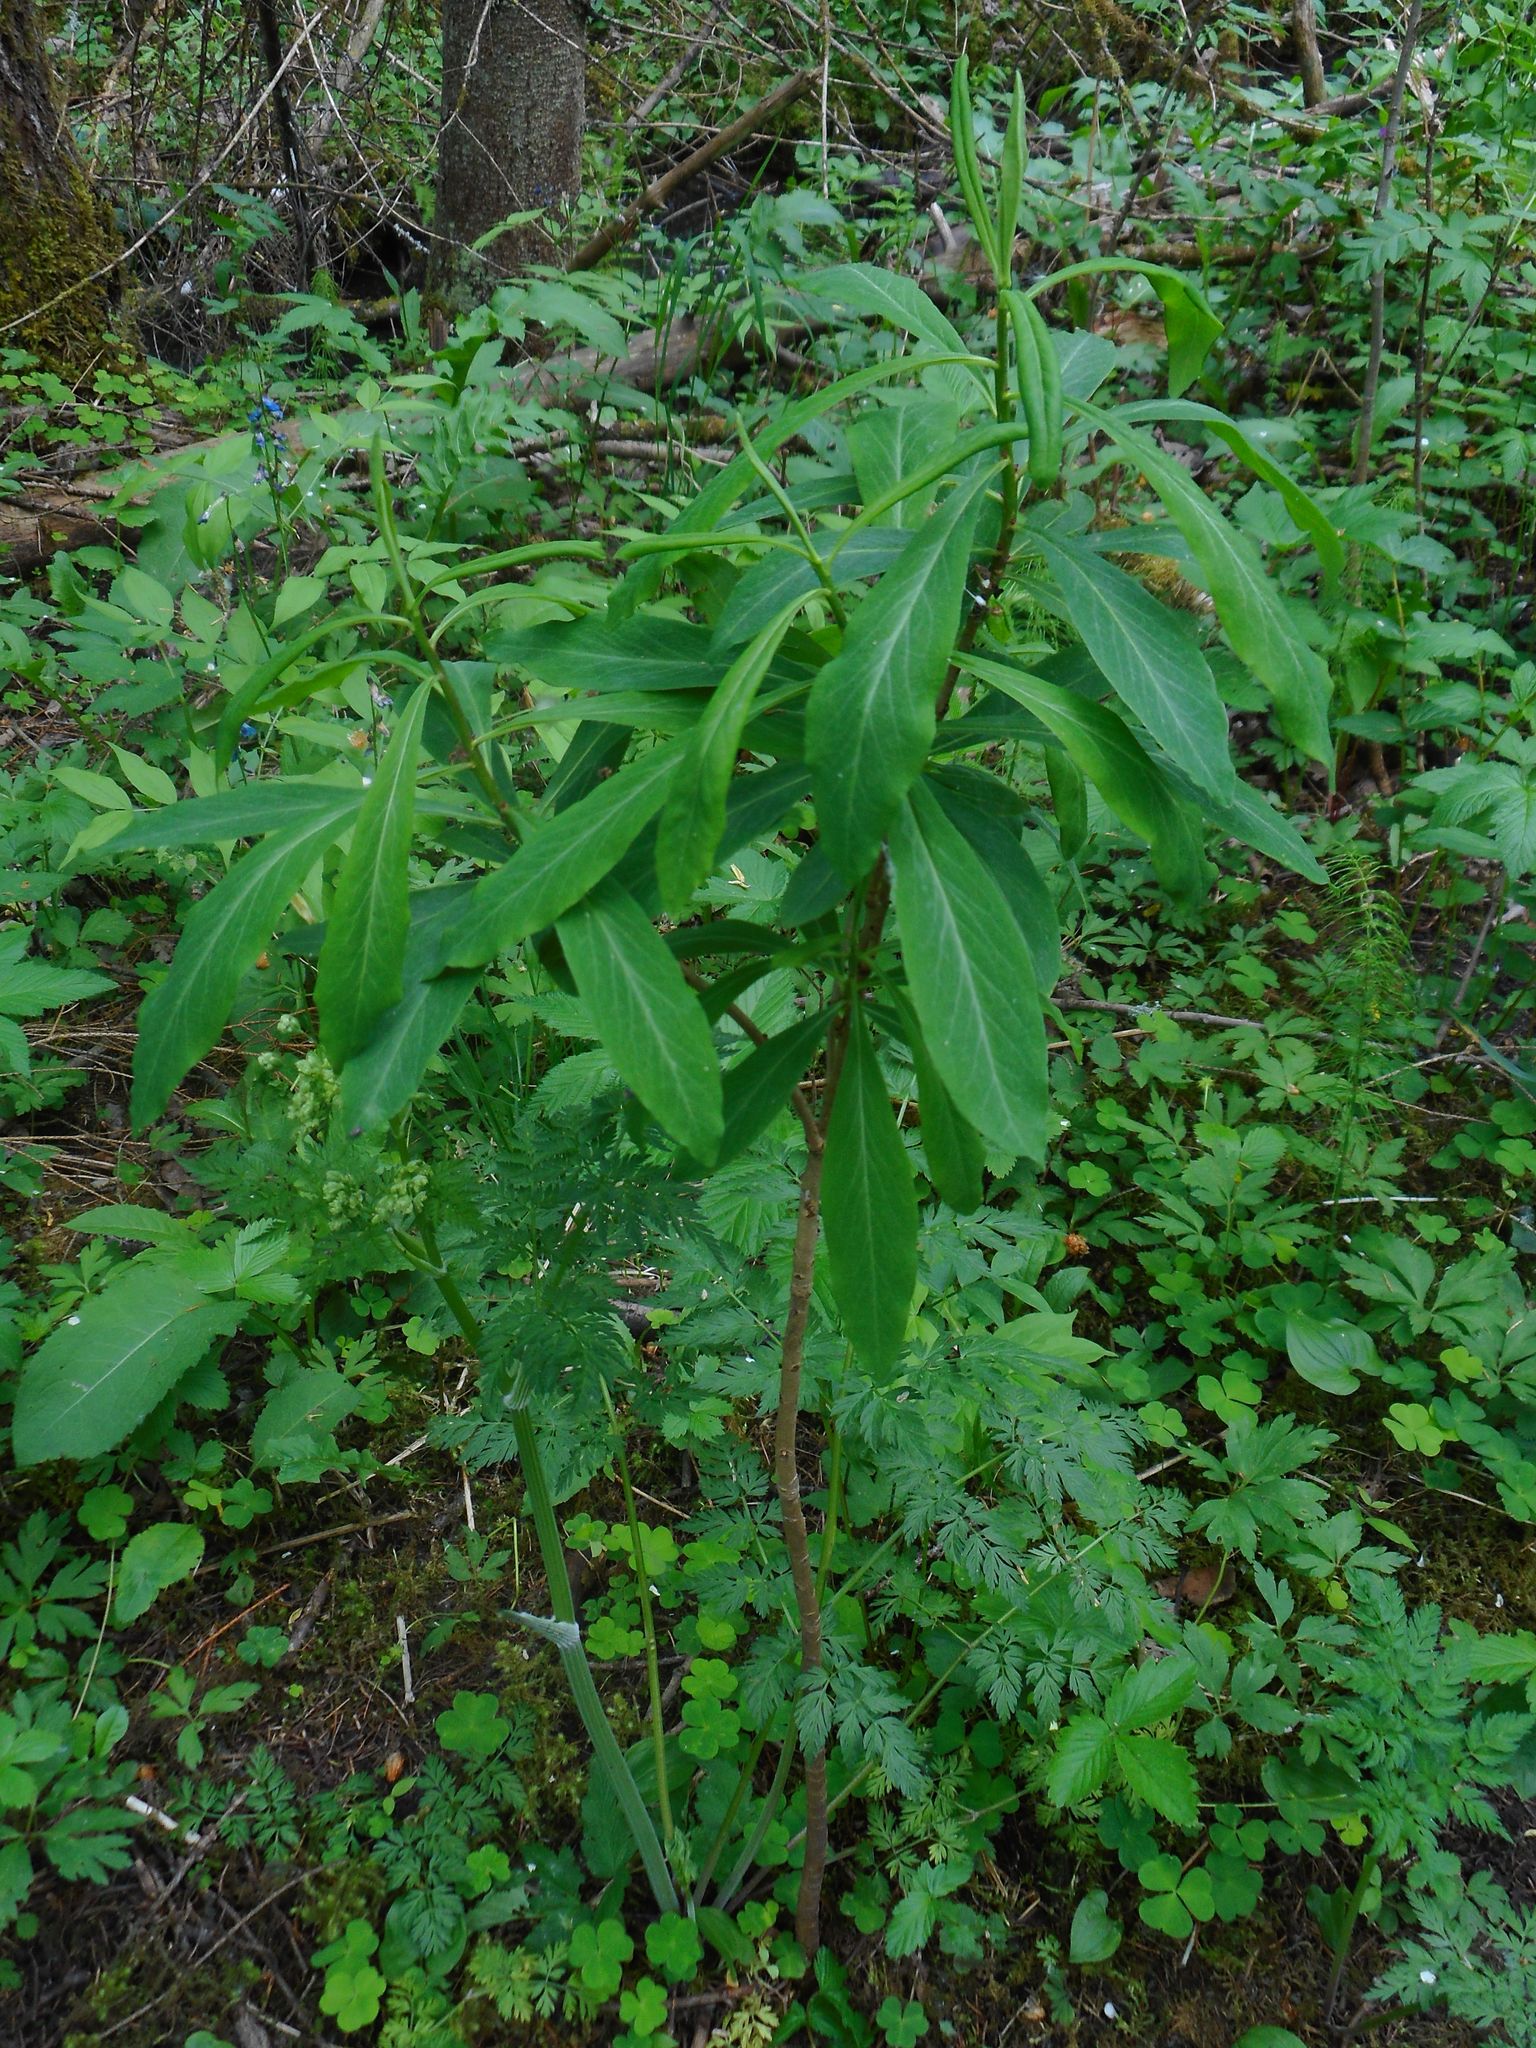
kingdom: Plantae
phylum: Tracheophyta
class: Magnoliopsida
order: Malvales
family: Thymelaeaceae
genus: Daphne
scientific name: Daphne mezereum
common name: Mezereon
